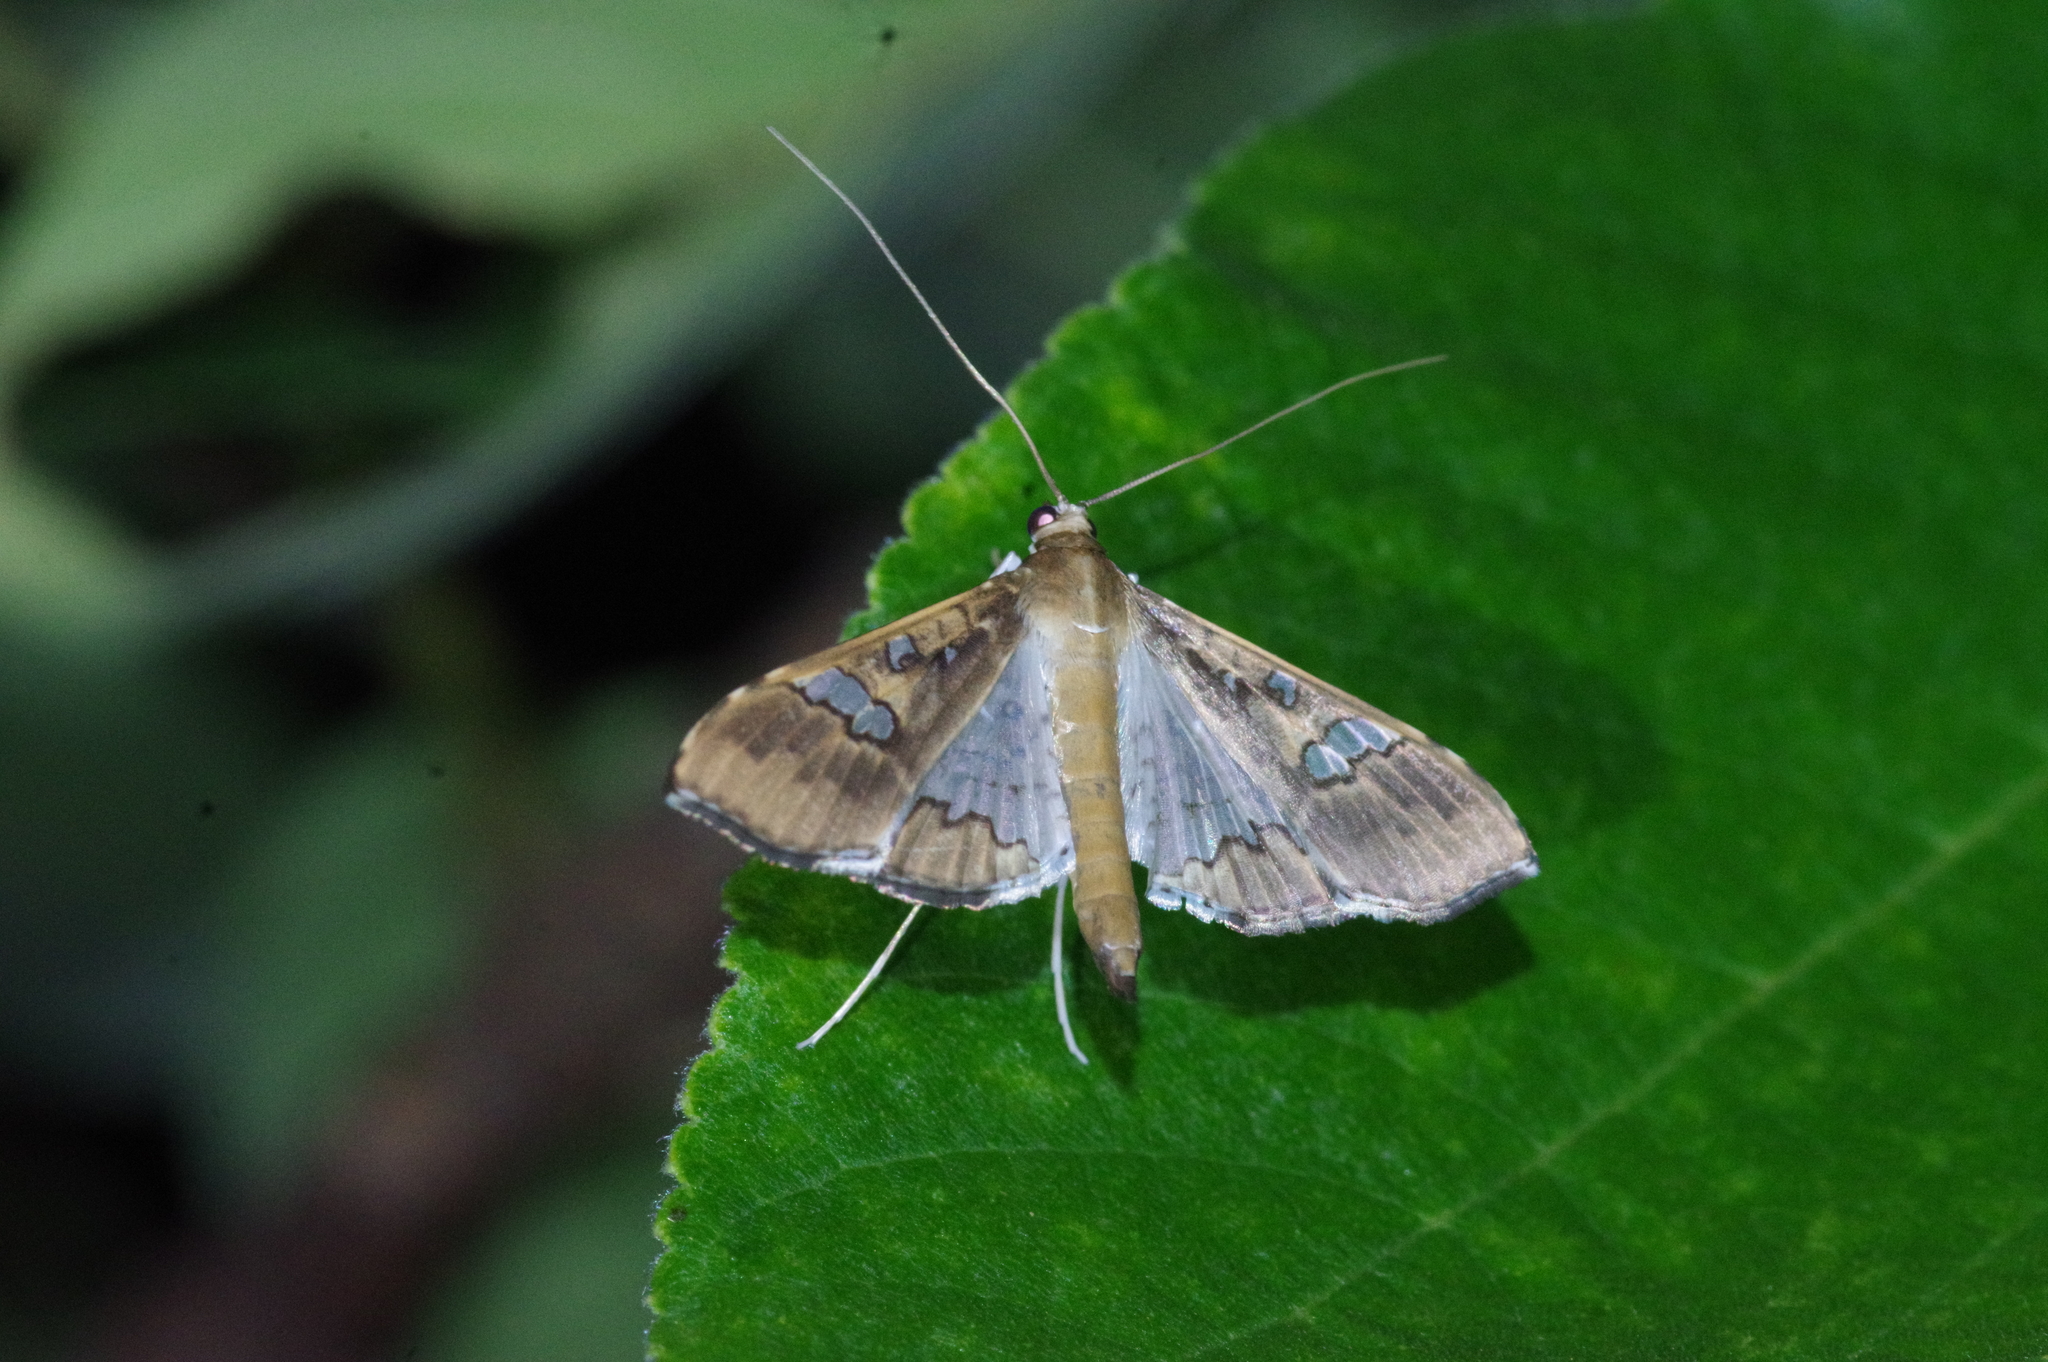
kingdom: Animalia
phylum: Arthropoda
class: Insecta
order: Lepidoptera
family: Crambidae
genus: Maruca
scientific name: Maruca vitrata
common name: Maruca pod borer
